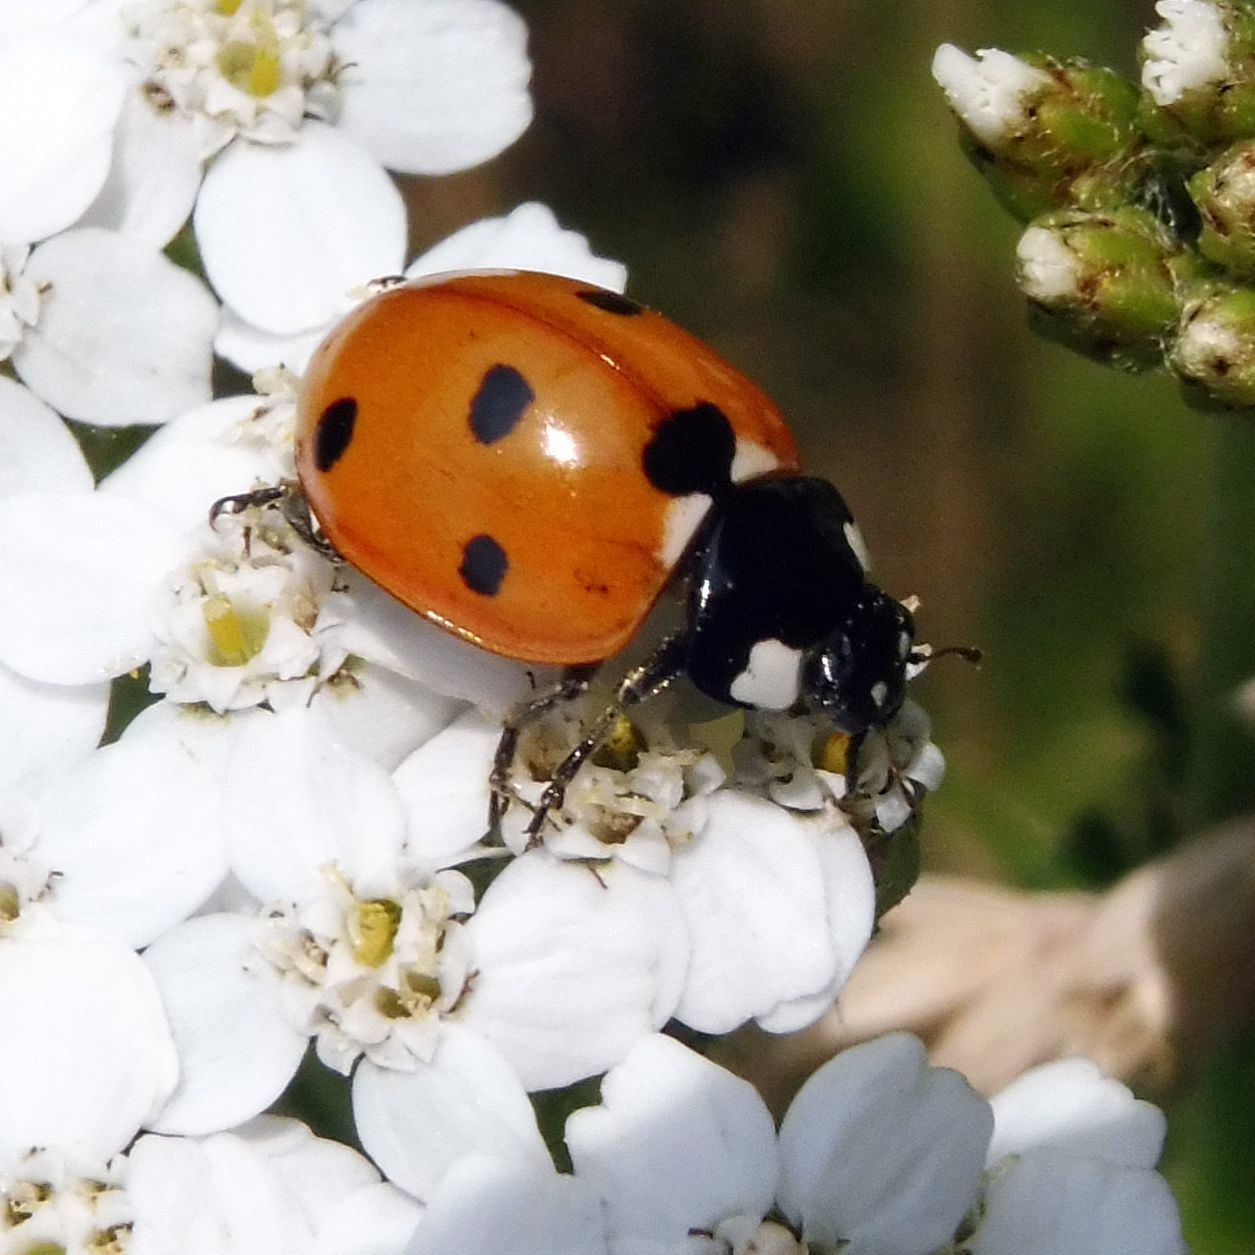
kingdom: Animalia
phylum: Arthropoda
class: Insecta
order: Coleoptera
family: Coccinellidae
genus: Coccinella
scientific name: Coccinella septempunctata
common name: Sevenspotted lady beetle
